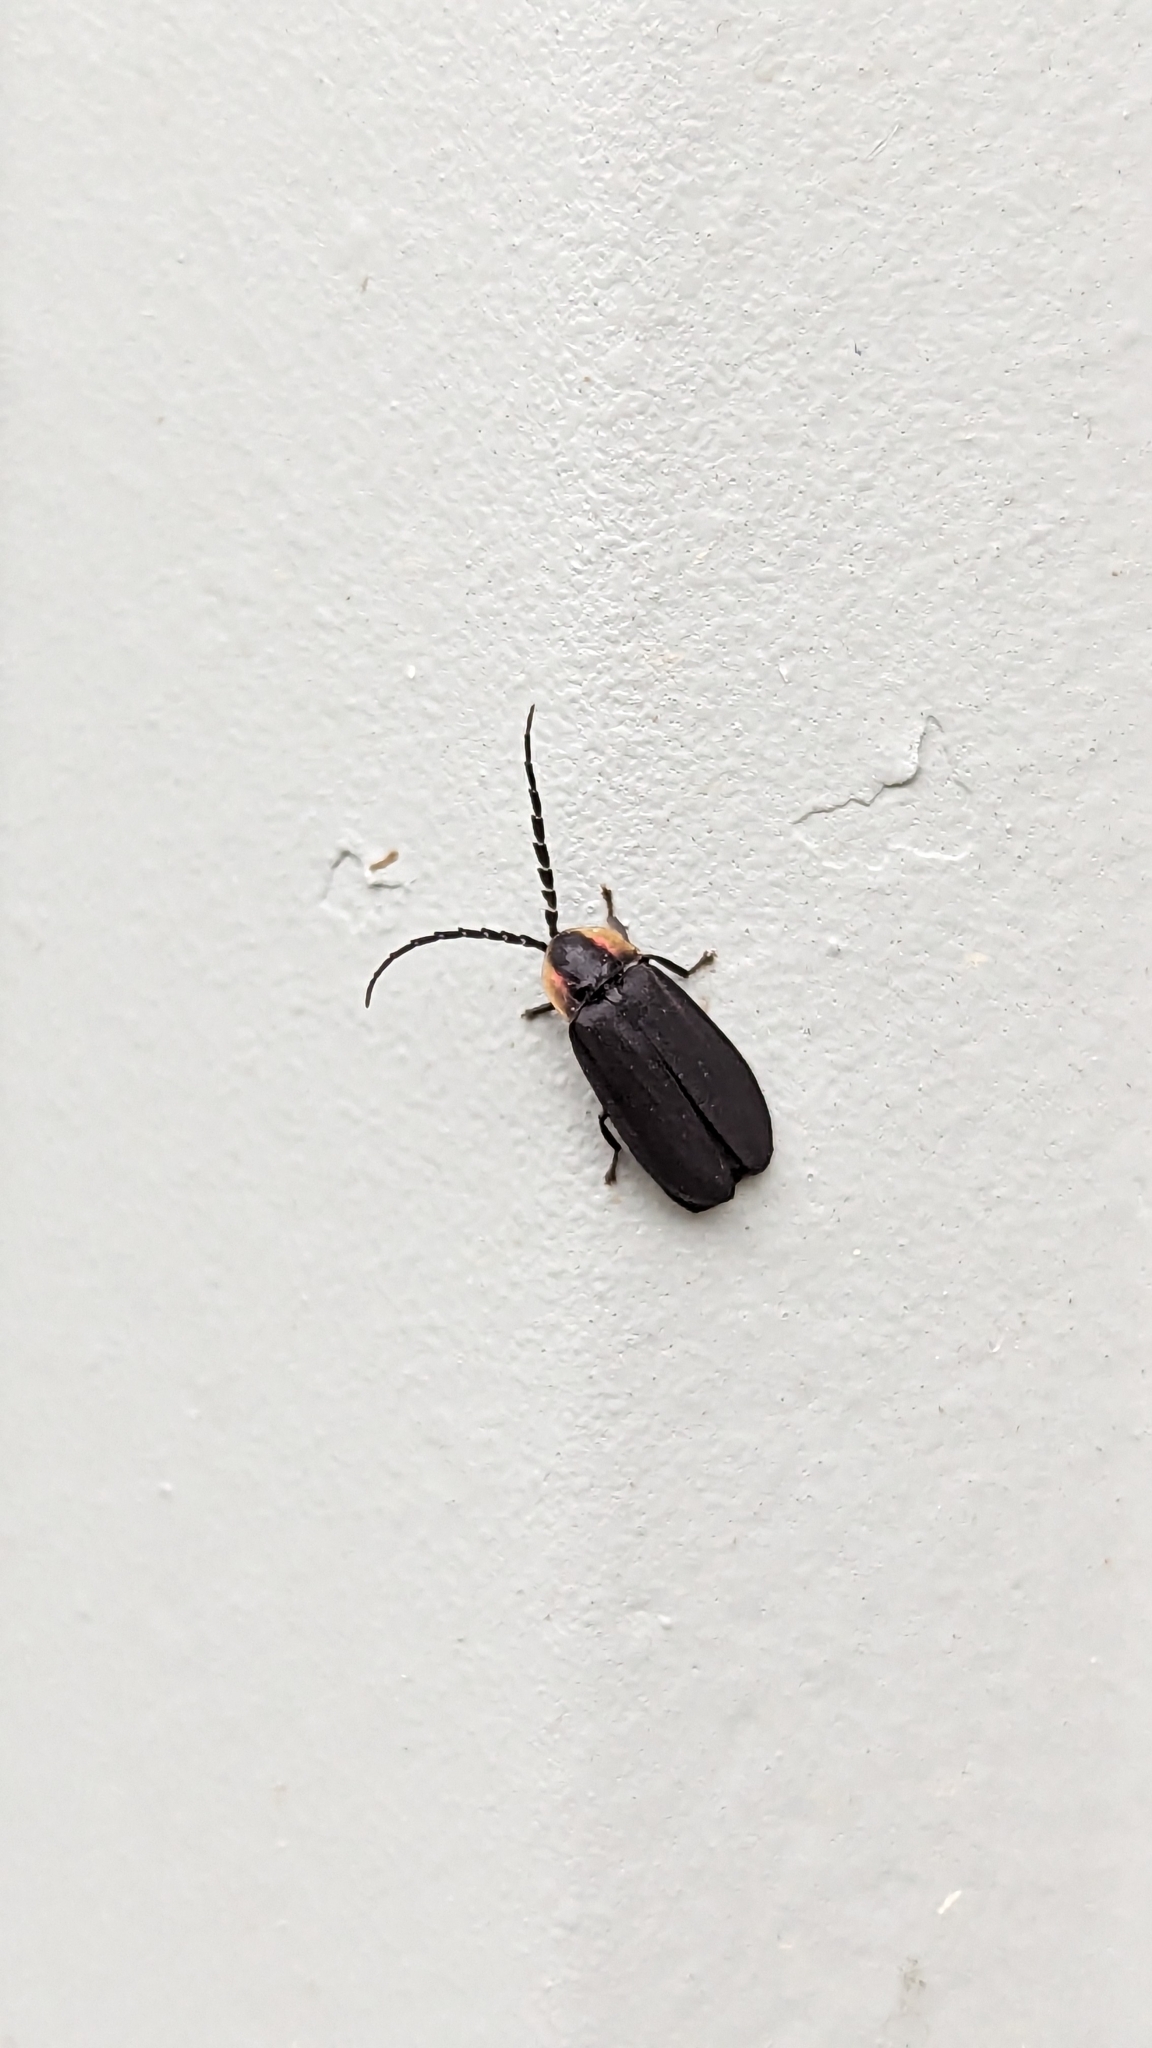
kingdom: Animalia
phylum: Arthropoda
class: Insecta
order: Coleoptera
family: Lampyridae
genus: Lucidota
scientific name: Lucidota atra
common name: Black firefly
